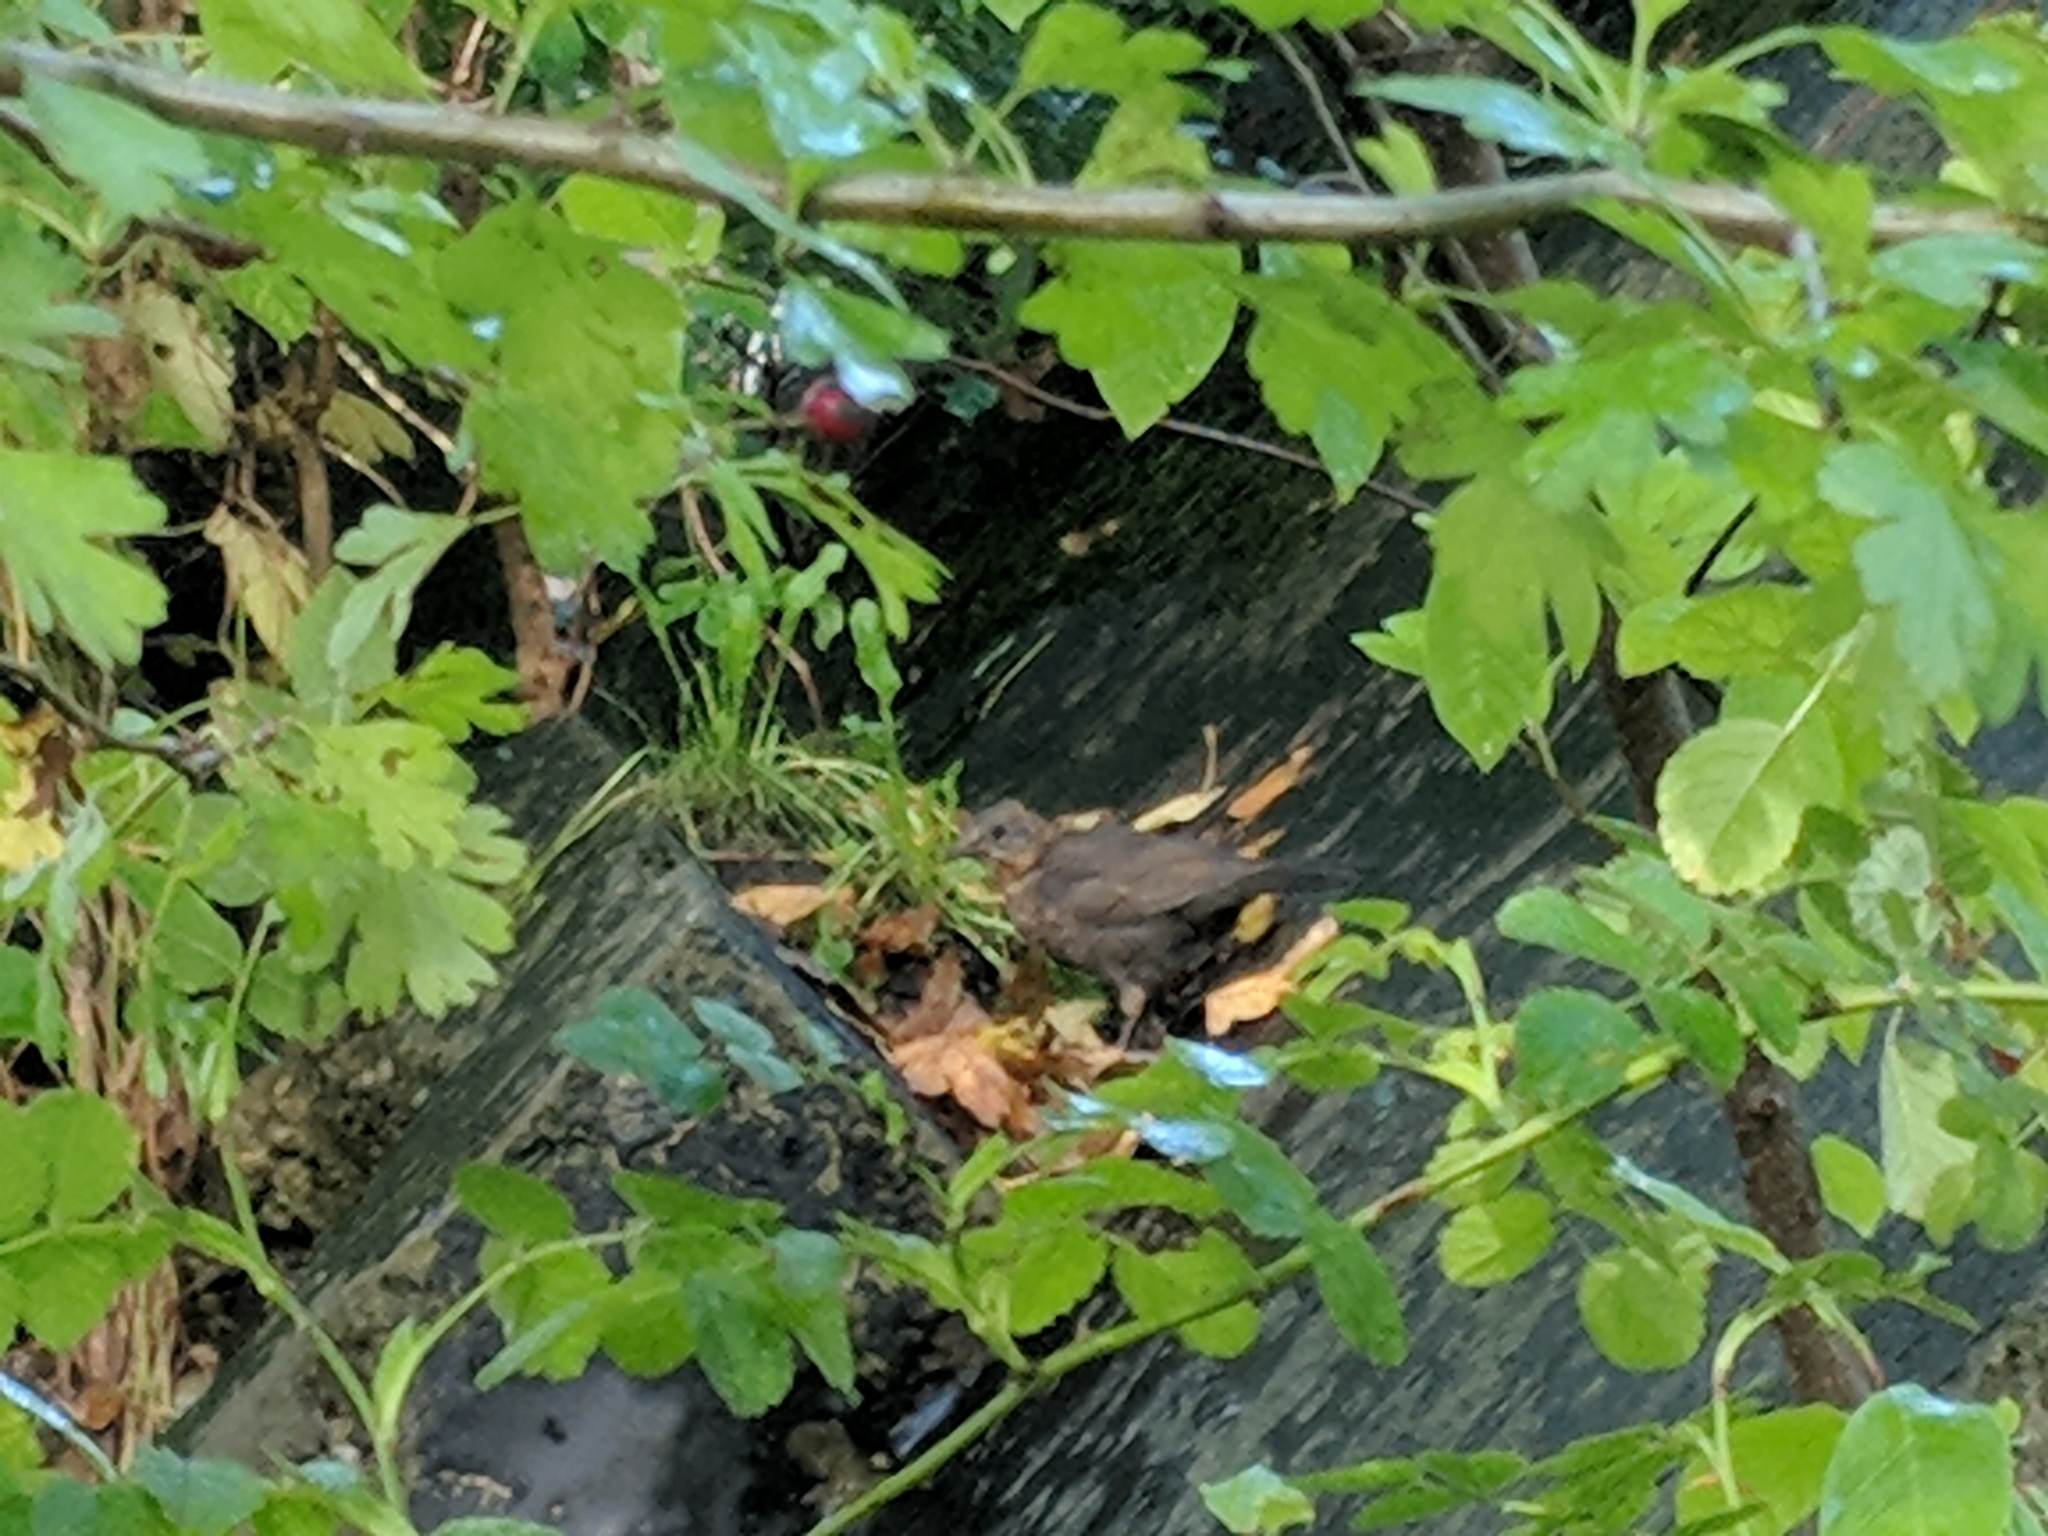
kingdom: Animalia
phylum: Chordata
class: Aves
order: Passeriformes
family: Turdidae
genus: Turdus
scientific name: Turdus merula
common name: Common blackbird
